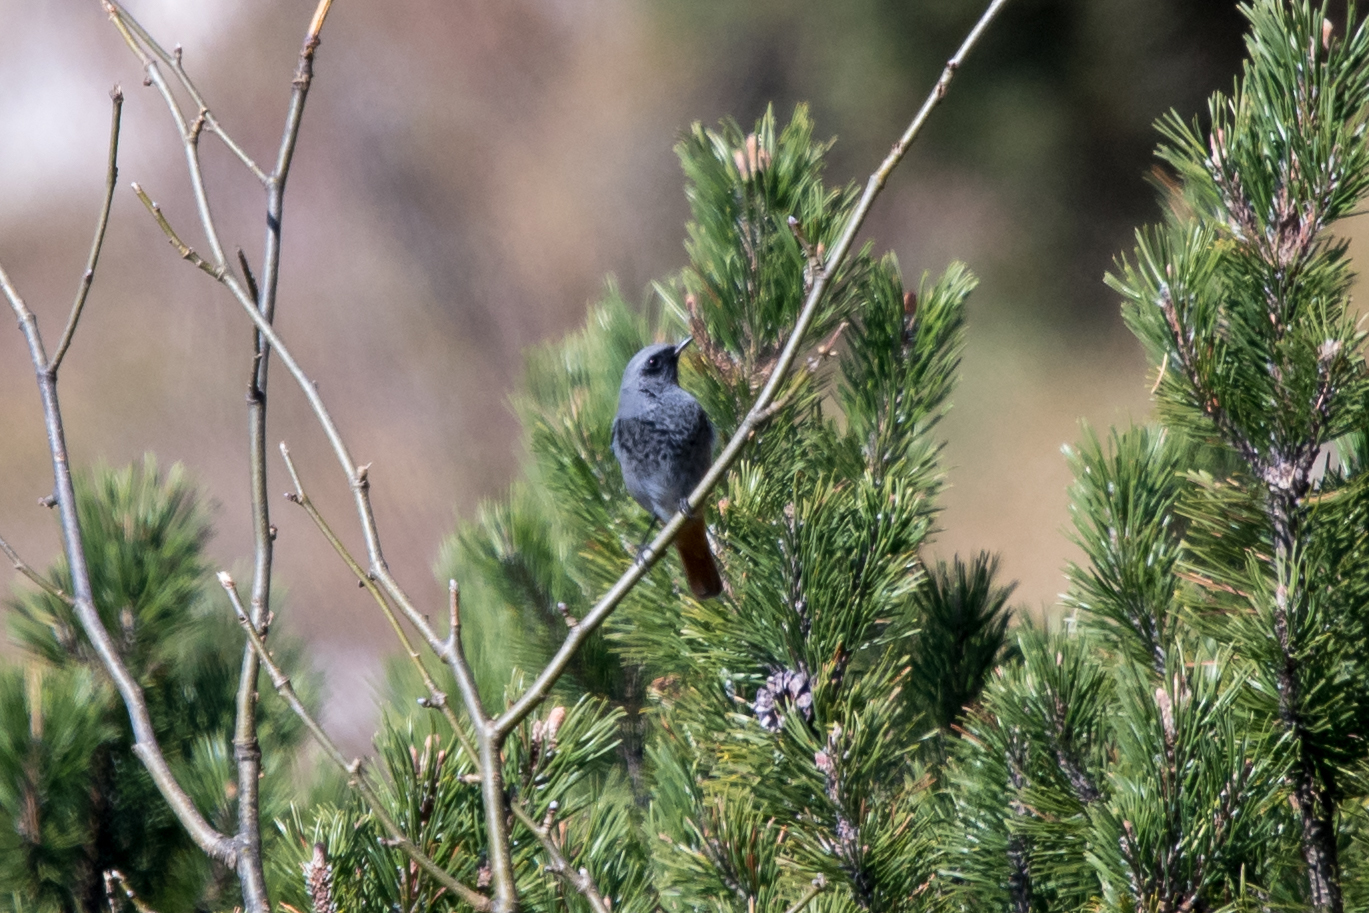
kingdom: Animalia
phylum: Chordata
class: Aves
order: Passeriformes
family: Muscicapidae
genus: Phoenicurus
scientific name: Phoenicurus ochruros
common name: Black redstart
